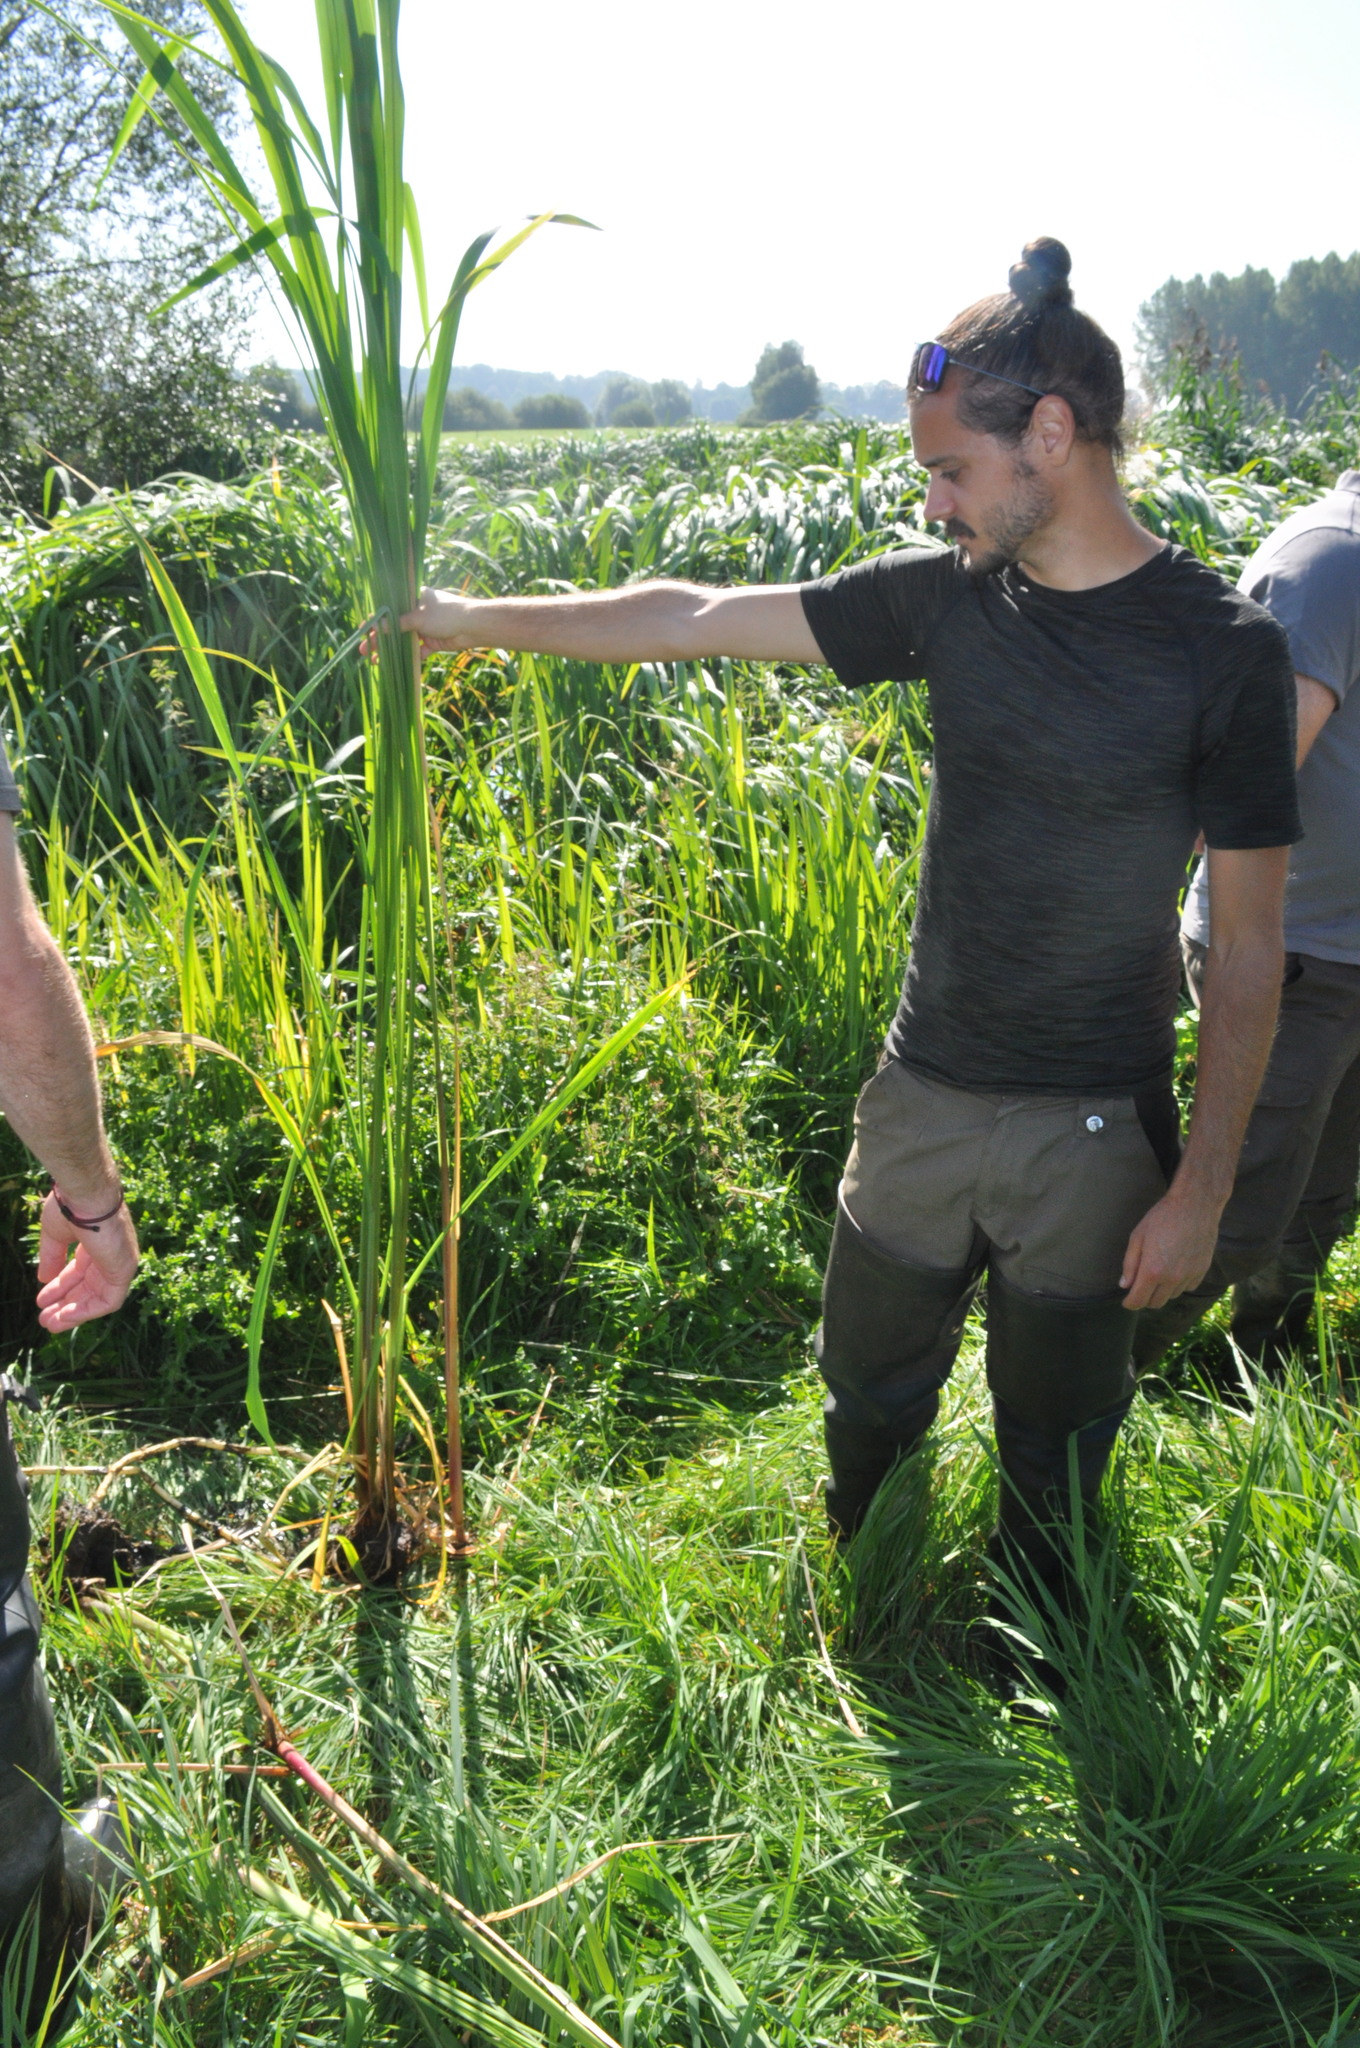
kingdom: Plantae
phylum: Tracheophyta
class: Liliopsida
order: Poales
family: Poaceae
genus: Zizania
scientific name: Zizania latifolia
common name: Manchurian wildrice
